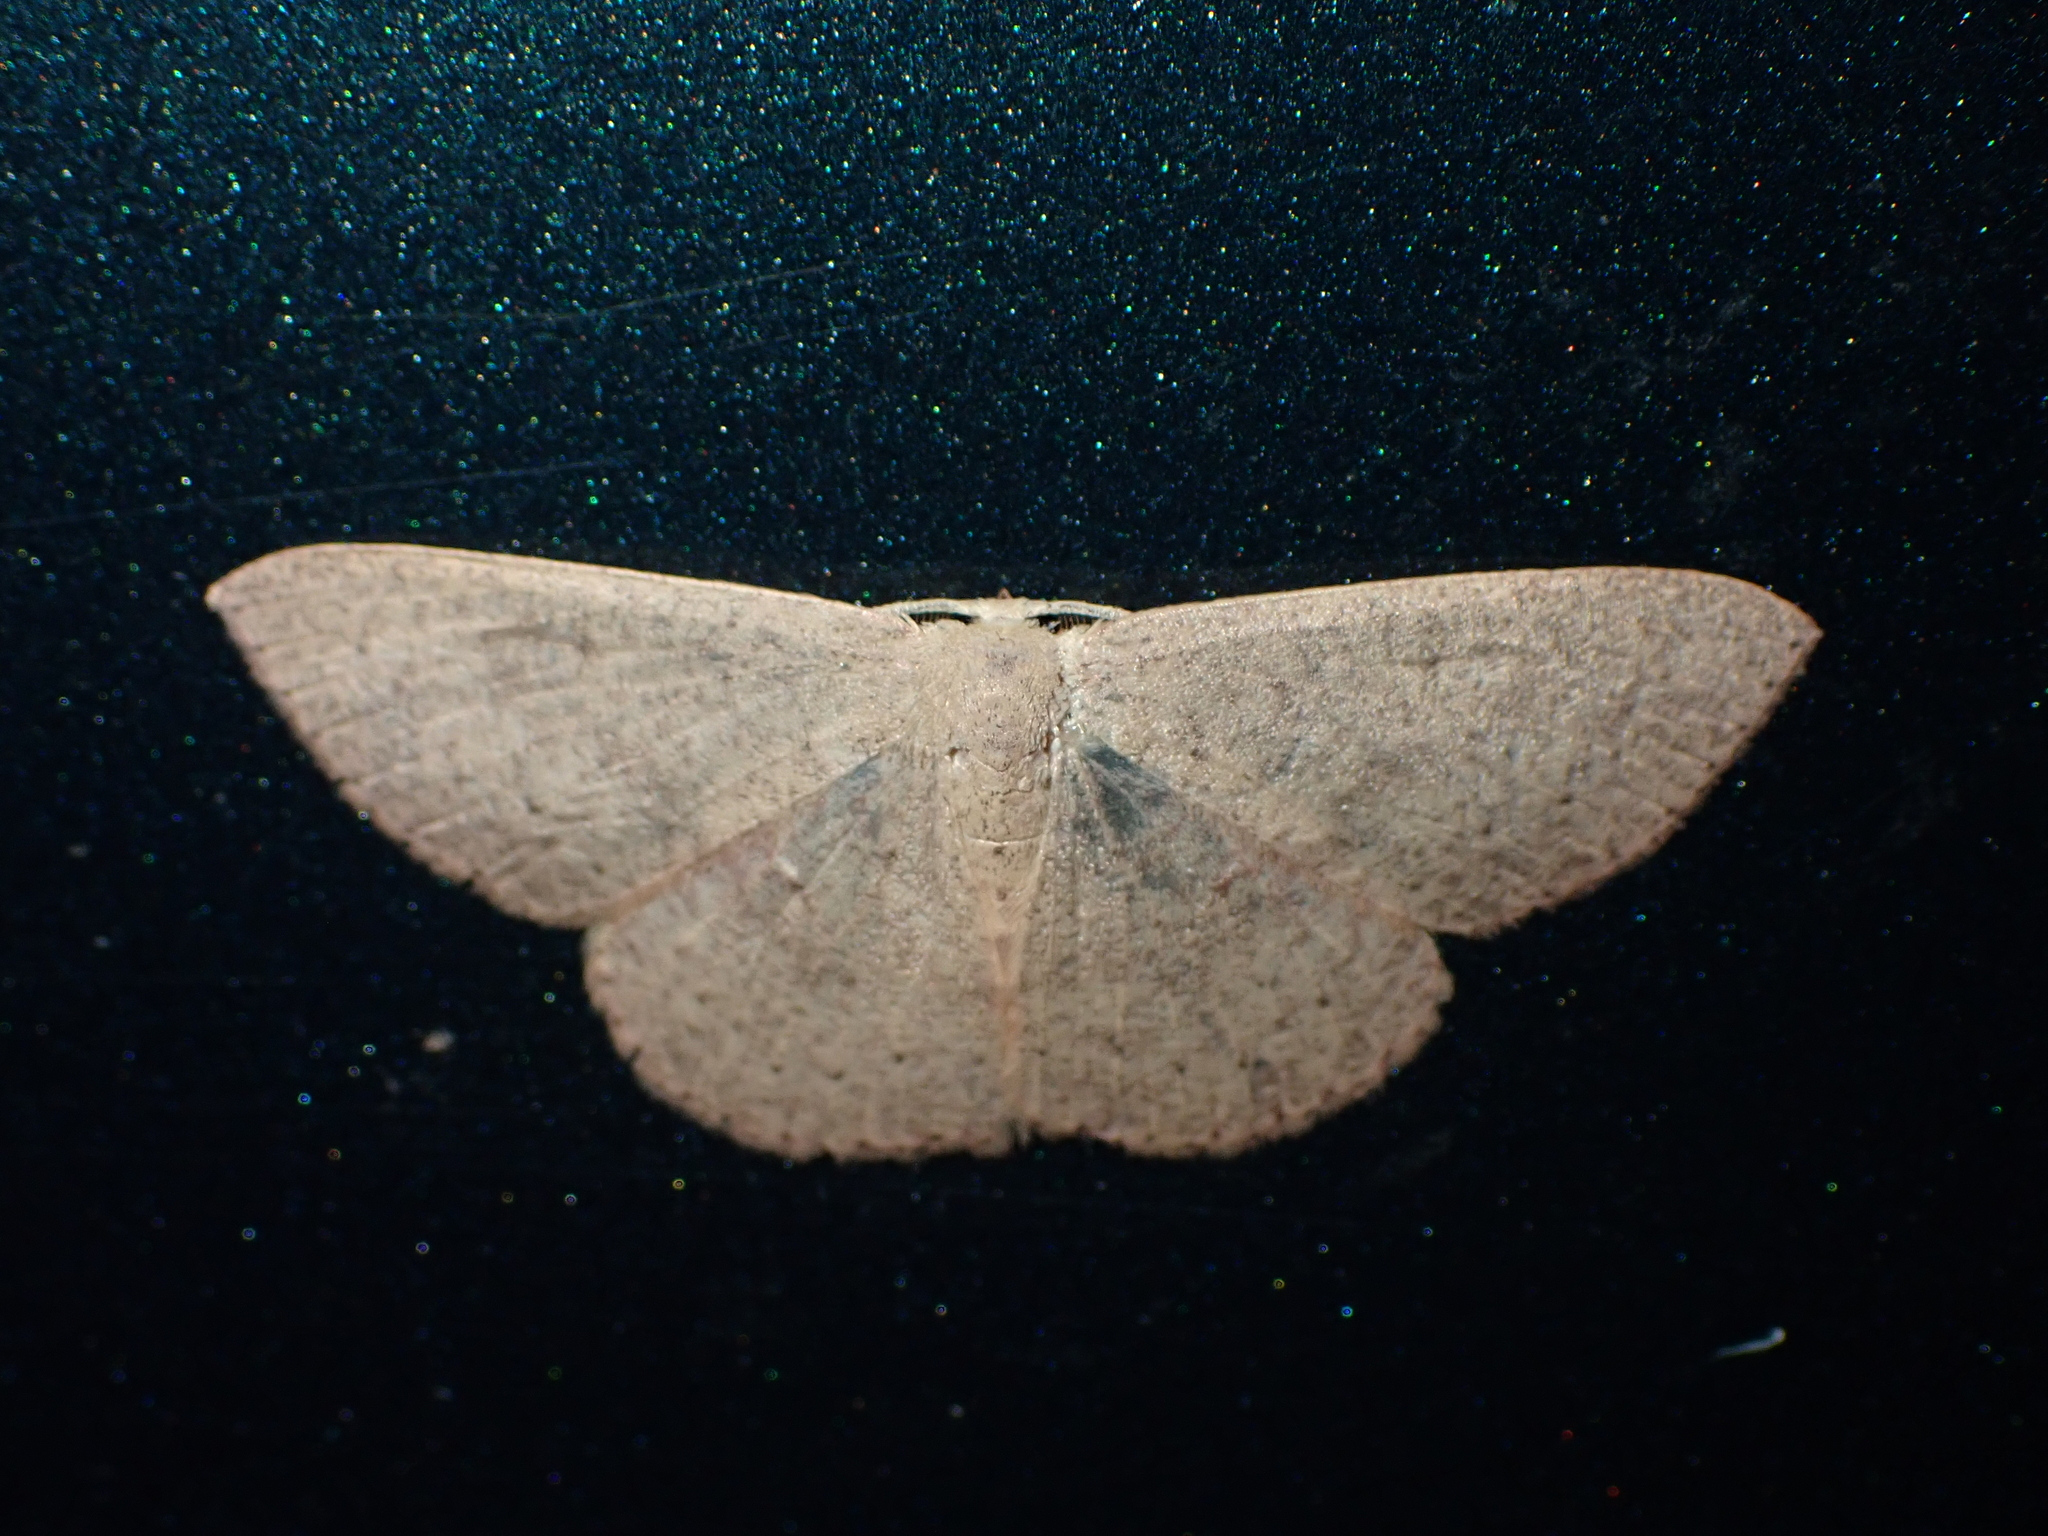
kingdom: Animalia
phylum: Arthropoda
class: Insecta
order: Lepidoptera
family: Geometridae
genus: Cyclophora
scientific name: Cyclophora obstataria
